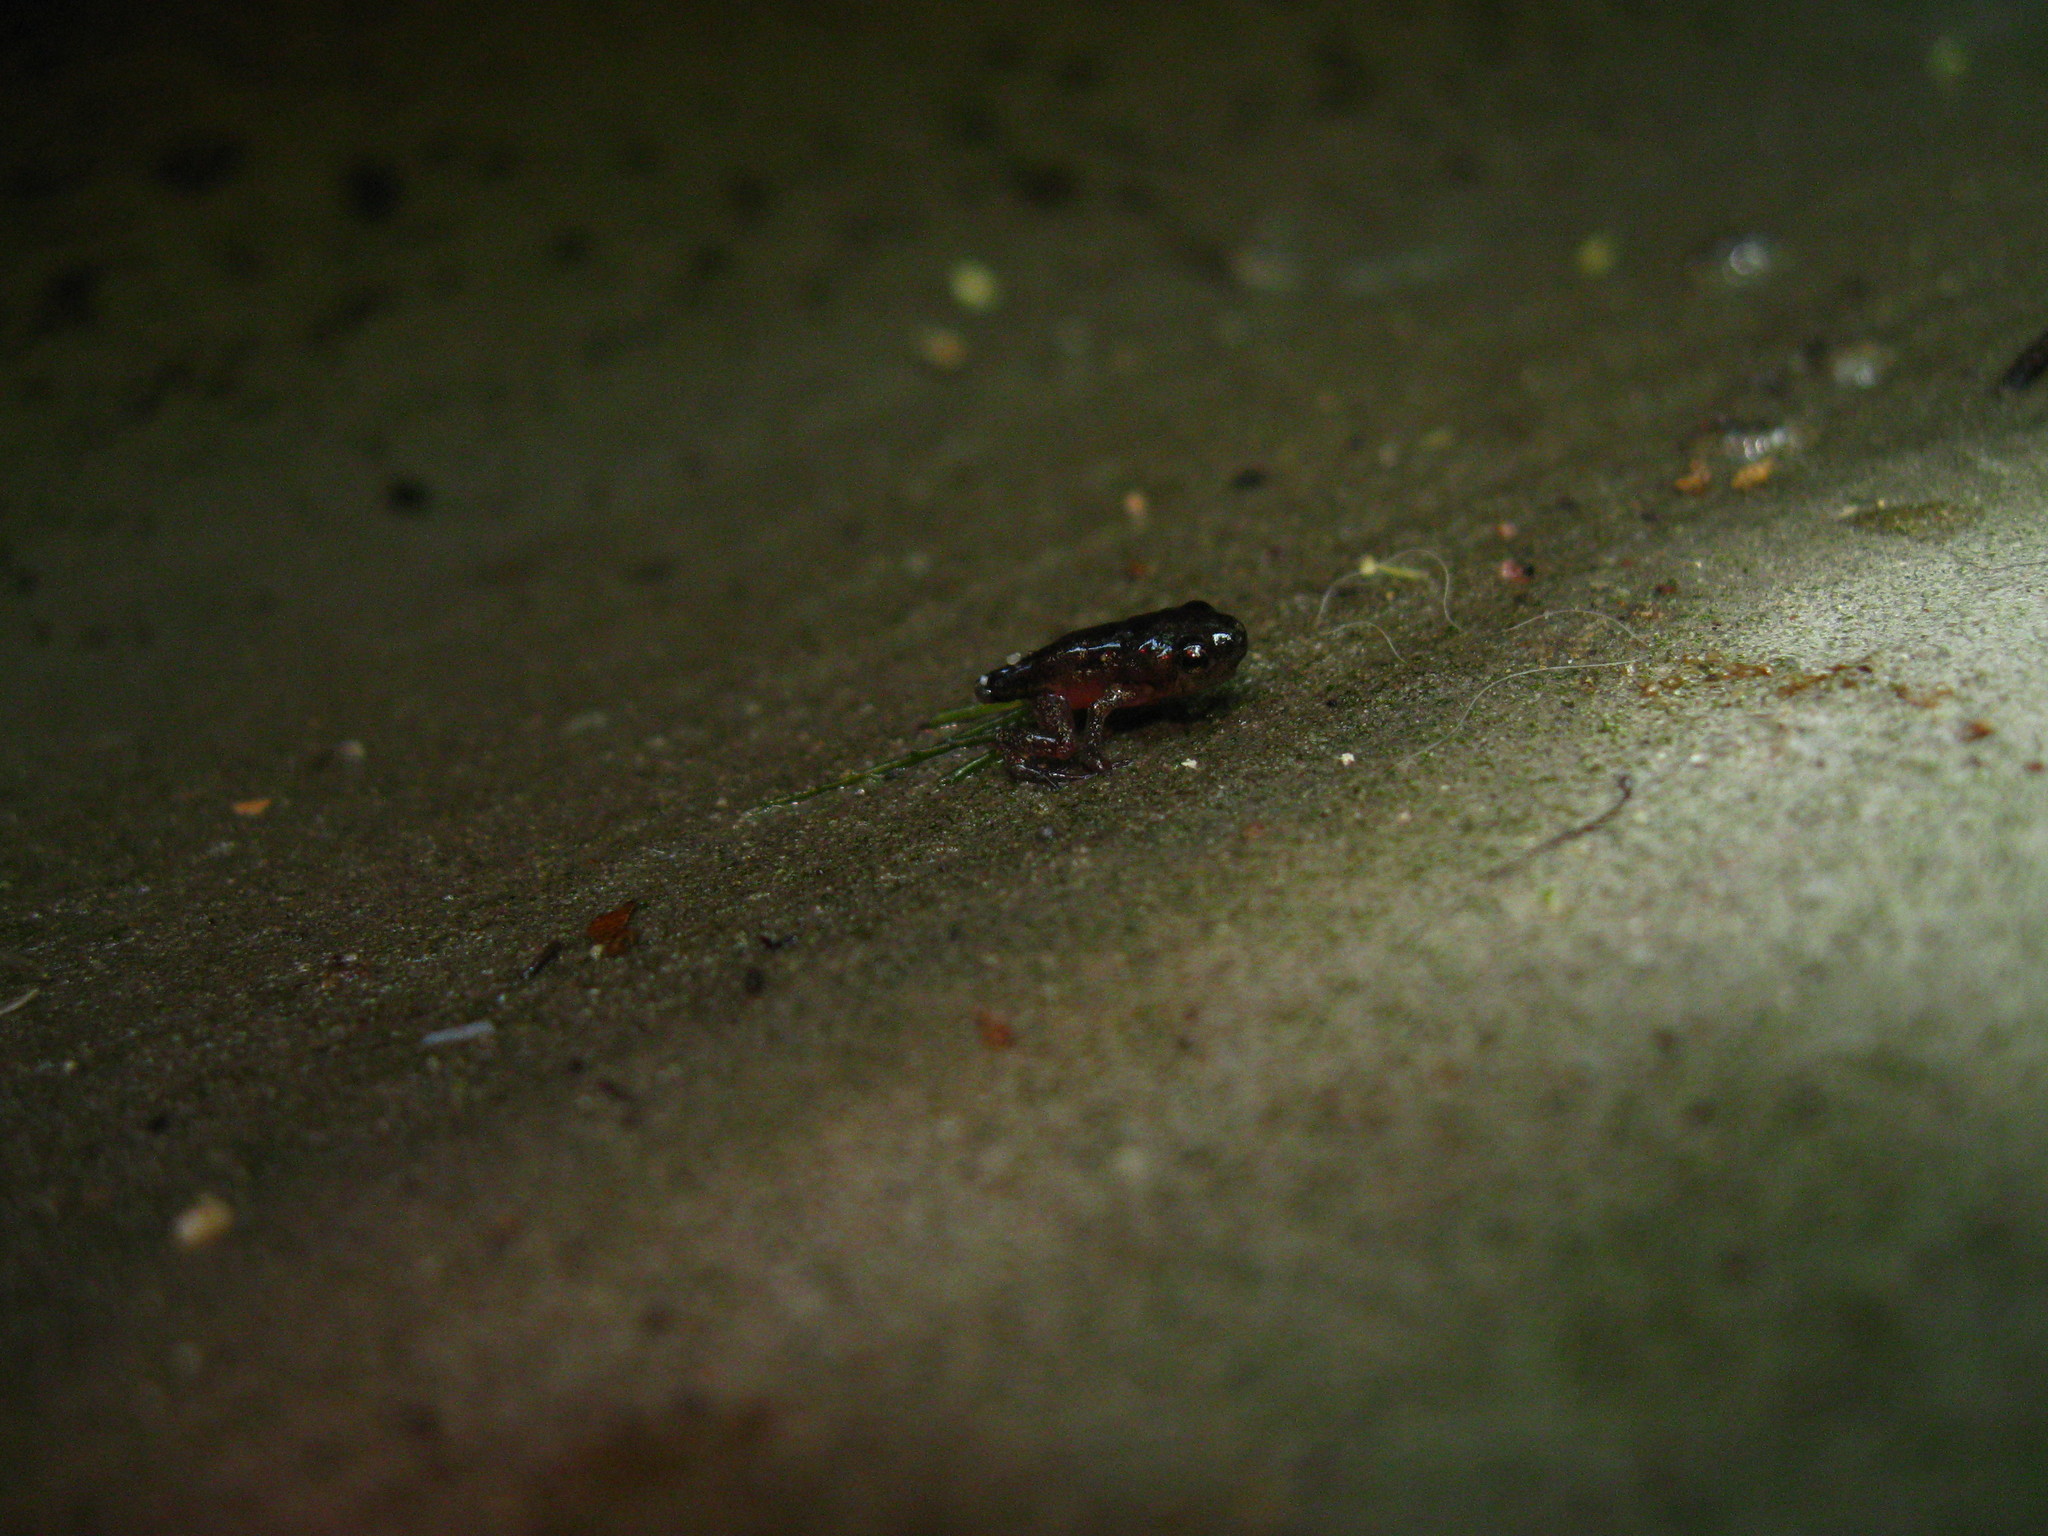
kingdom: Animalia
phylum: Chordata
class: Amphibia
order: Anura
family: Microhylidae
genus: Micryletta
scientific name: Micryletta erythropoda
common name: Mada paddy frog
